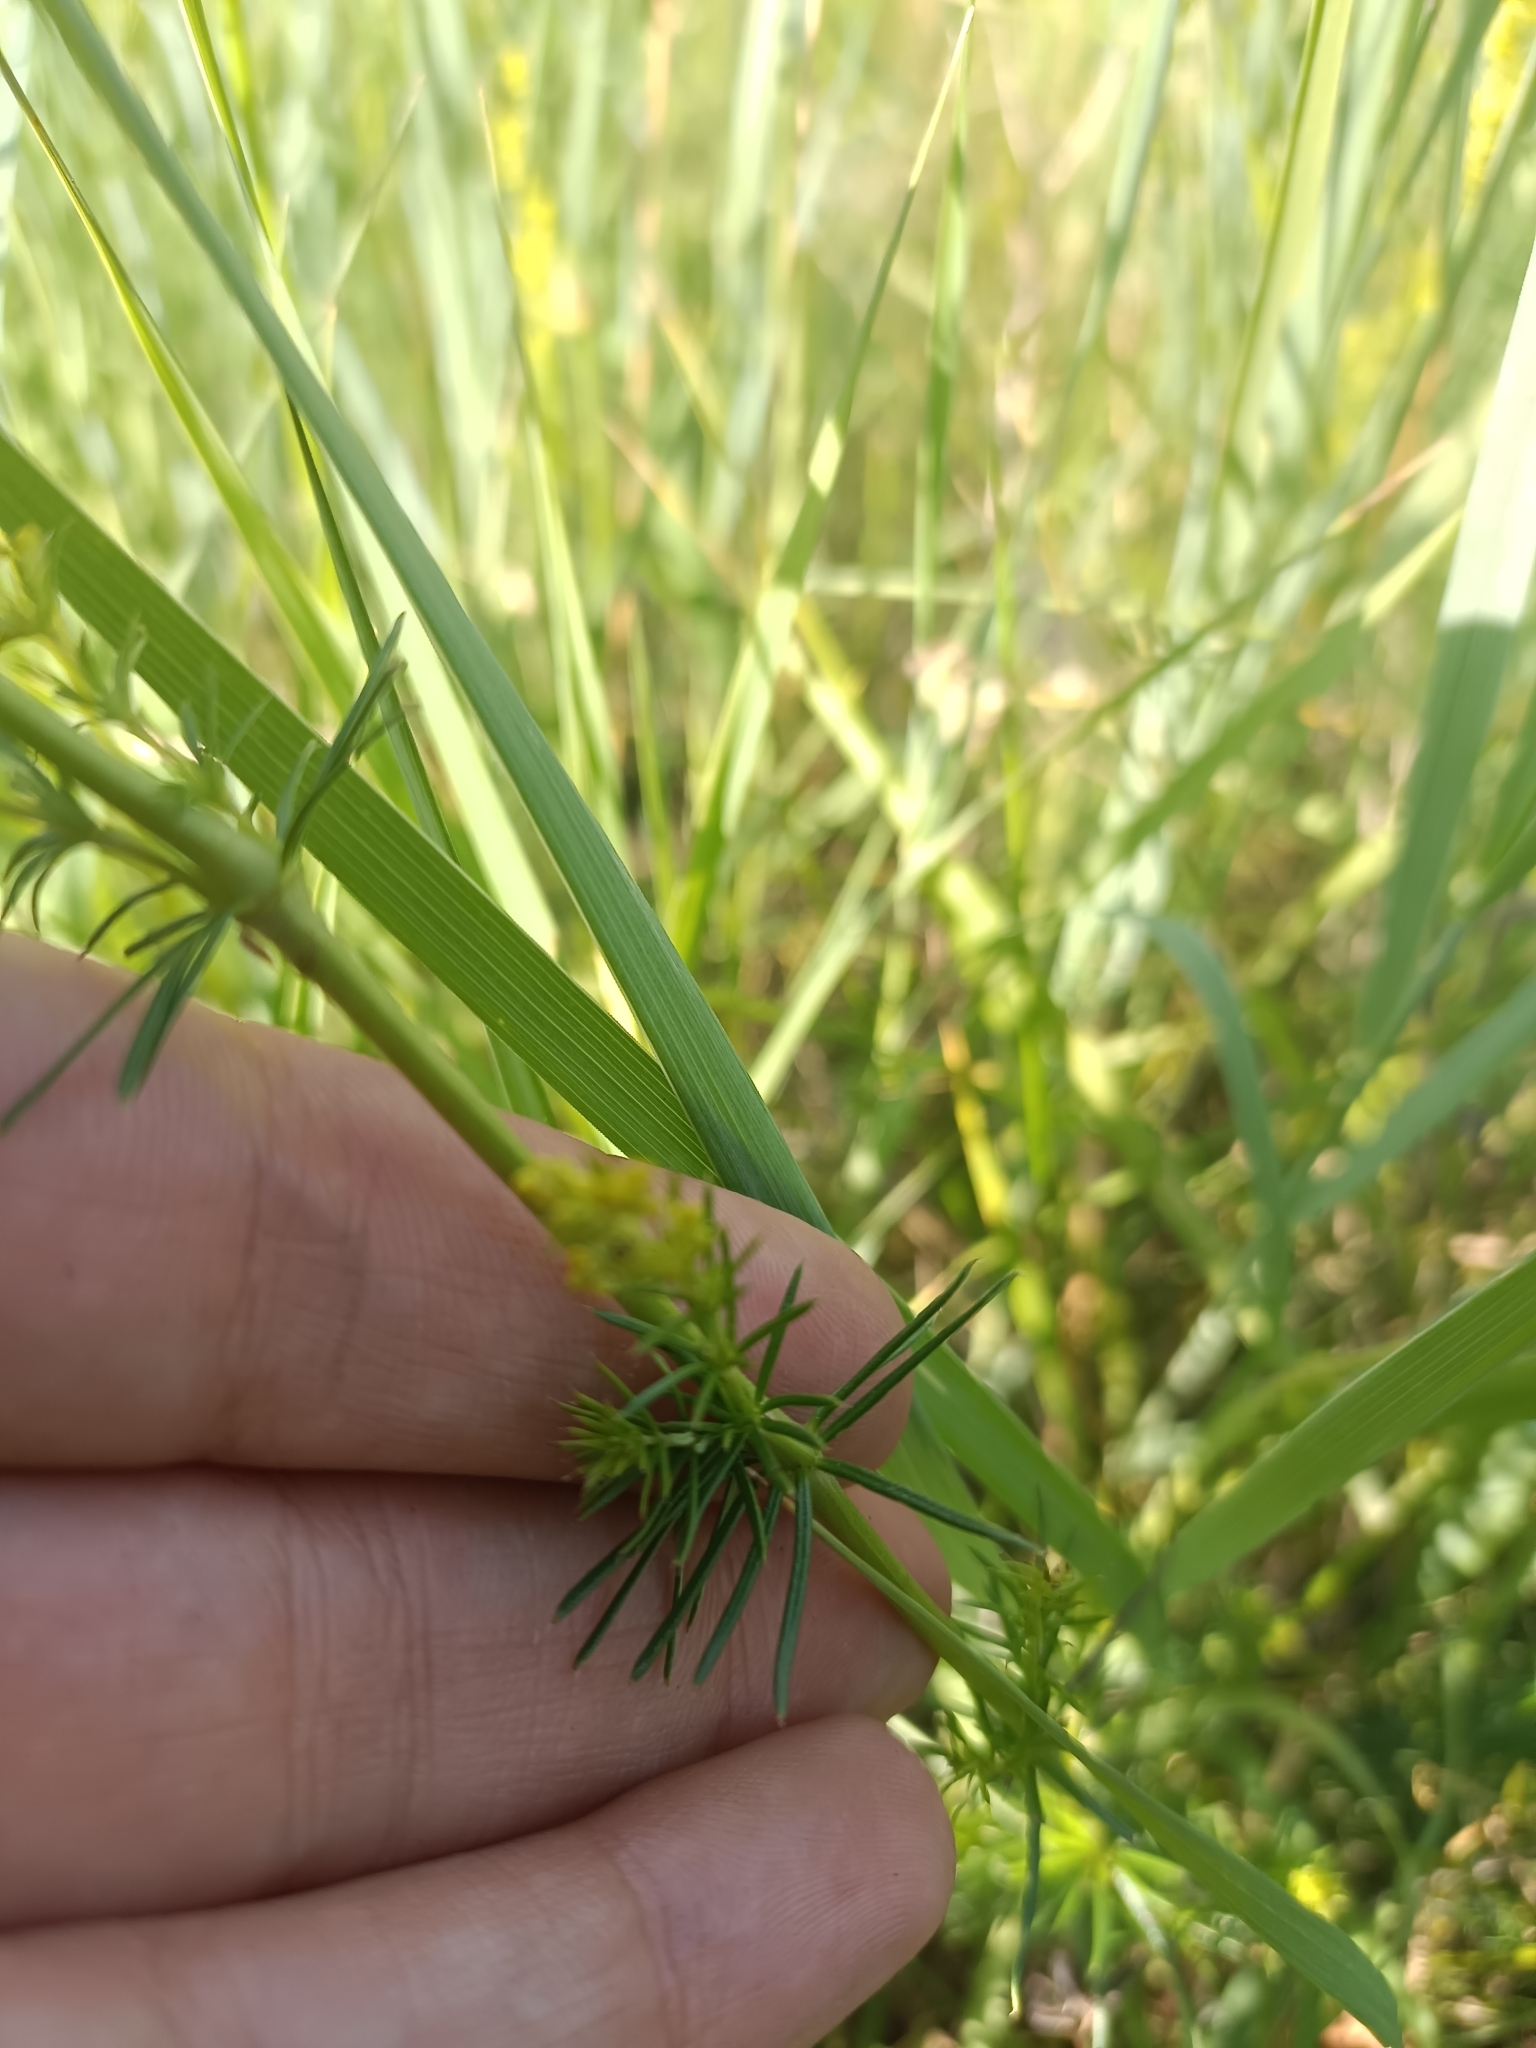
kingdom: Plantae
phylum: Tracheophyta
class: Magnoliopsida
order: Gentianales
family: Rubiaceae
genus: Galium
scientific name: Galium verum
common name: Lady's bedstraw
